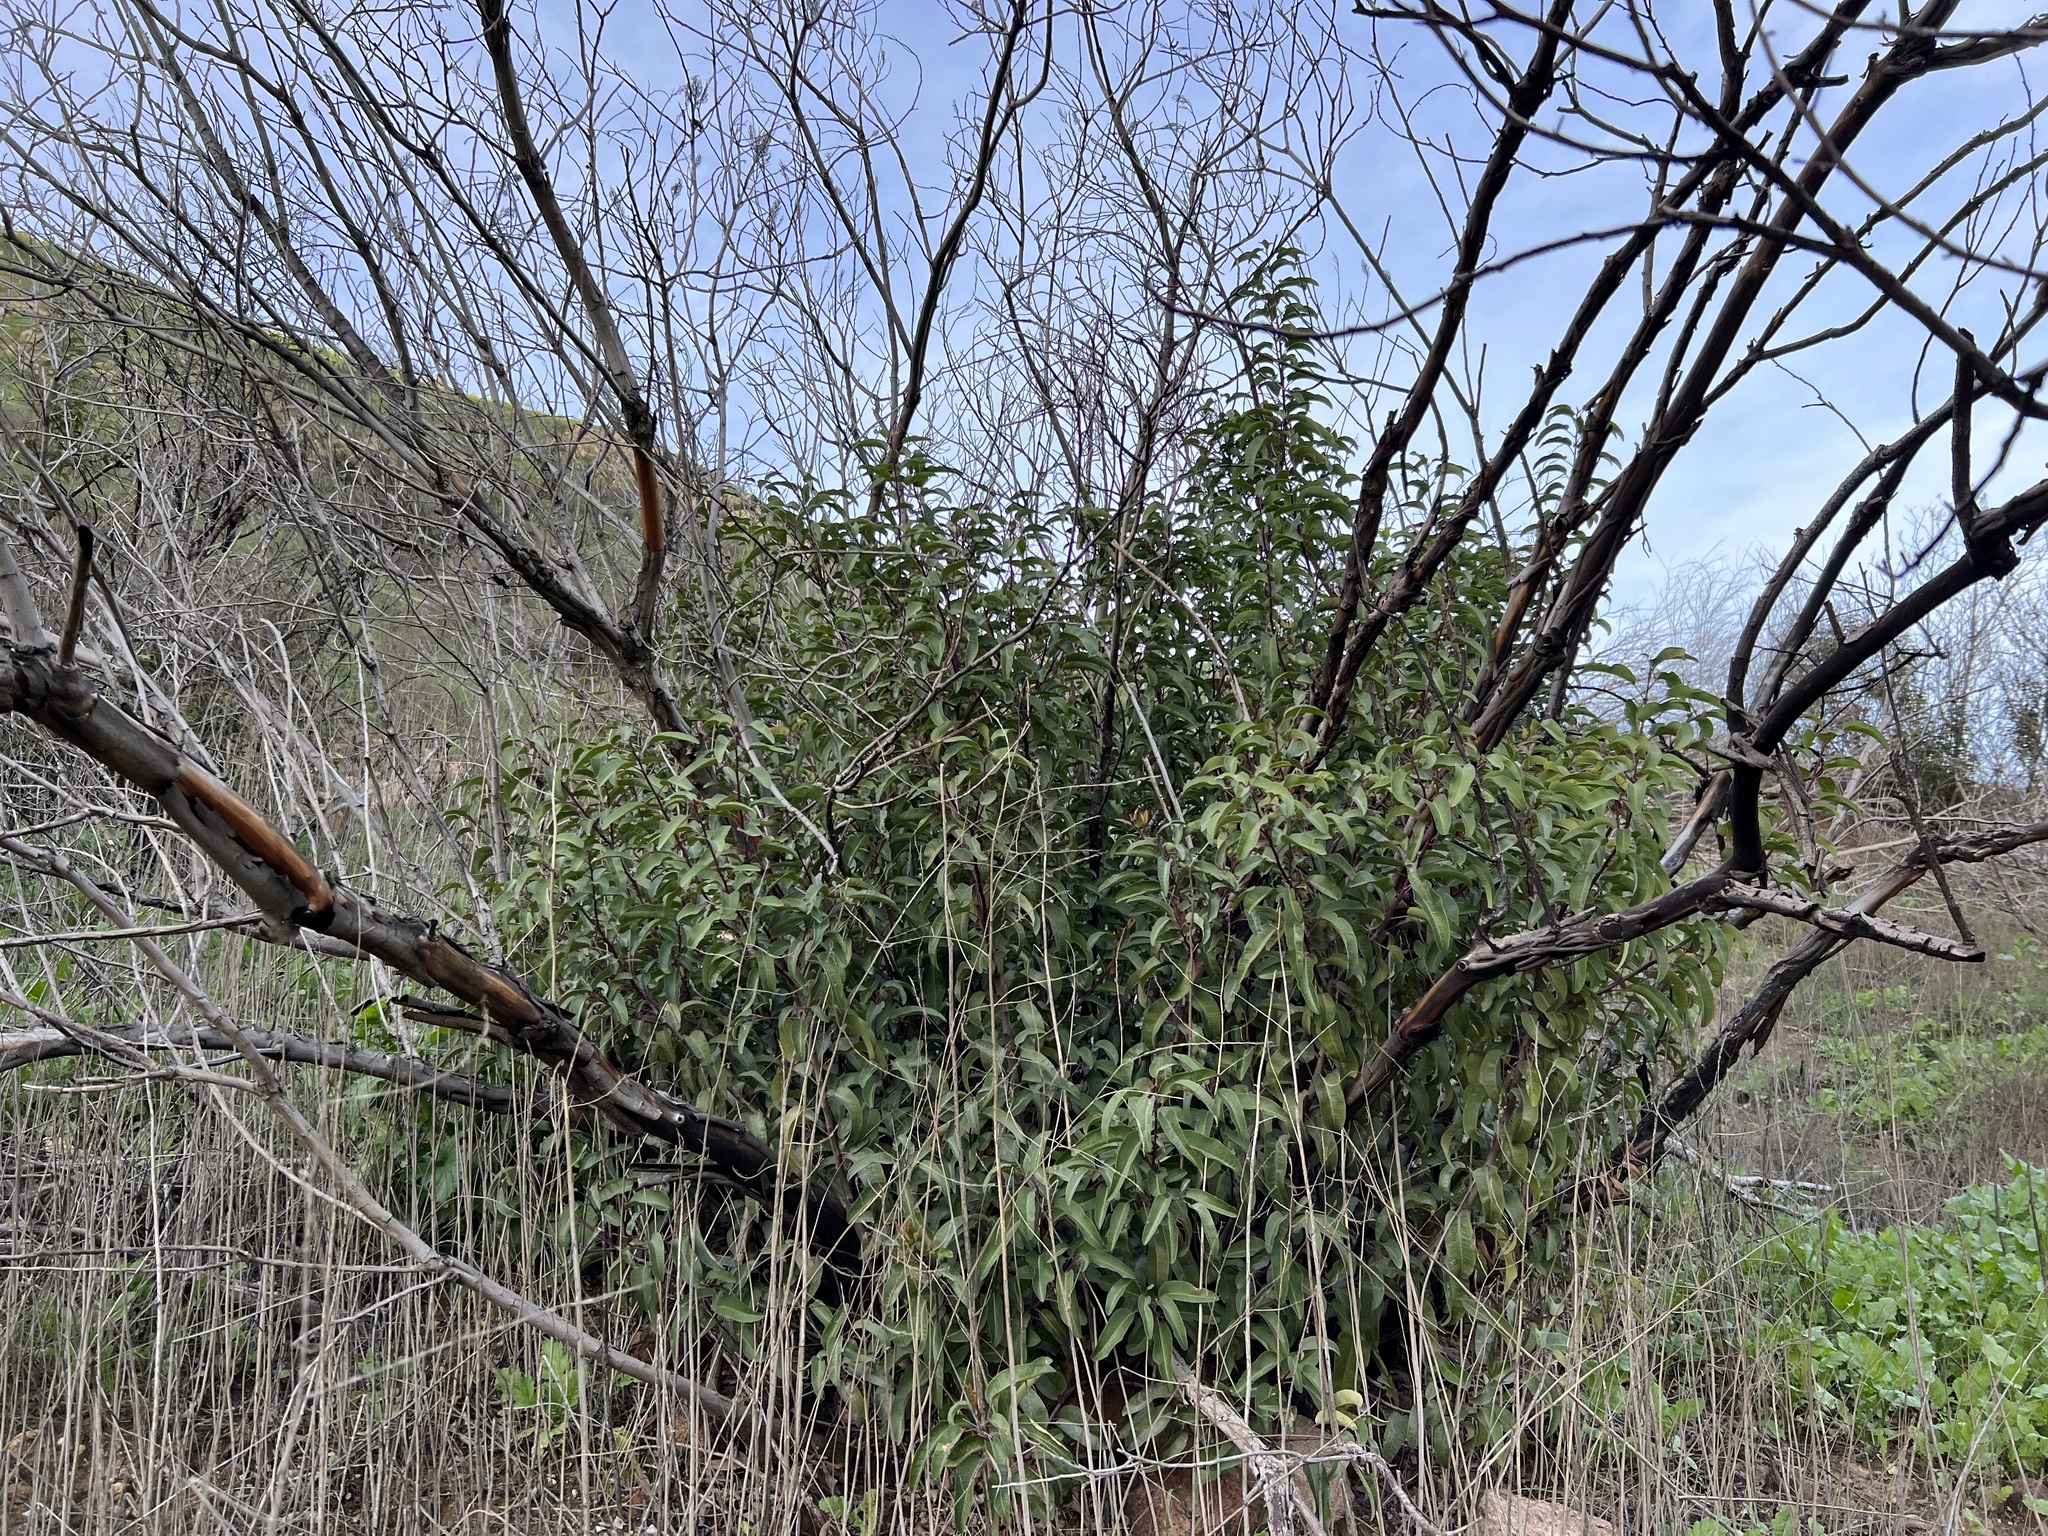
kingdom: Plantae
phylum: Tracheophyta
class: Magnoliopsida
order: Sapindales
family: Anacardiaceae
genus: Malosma
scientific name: Malosma laurina
